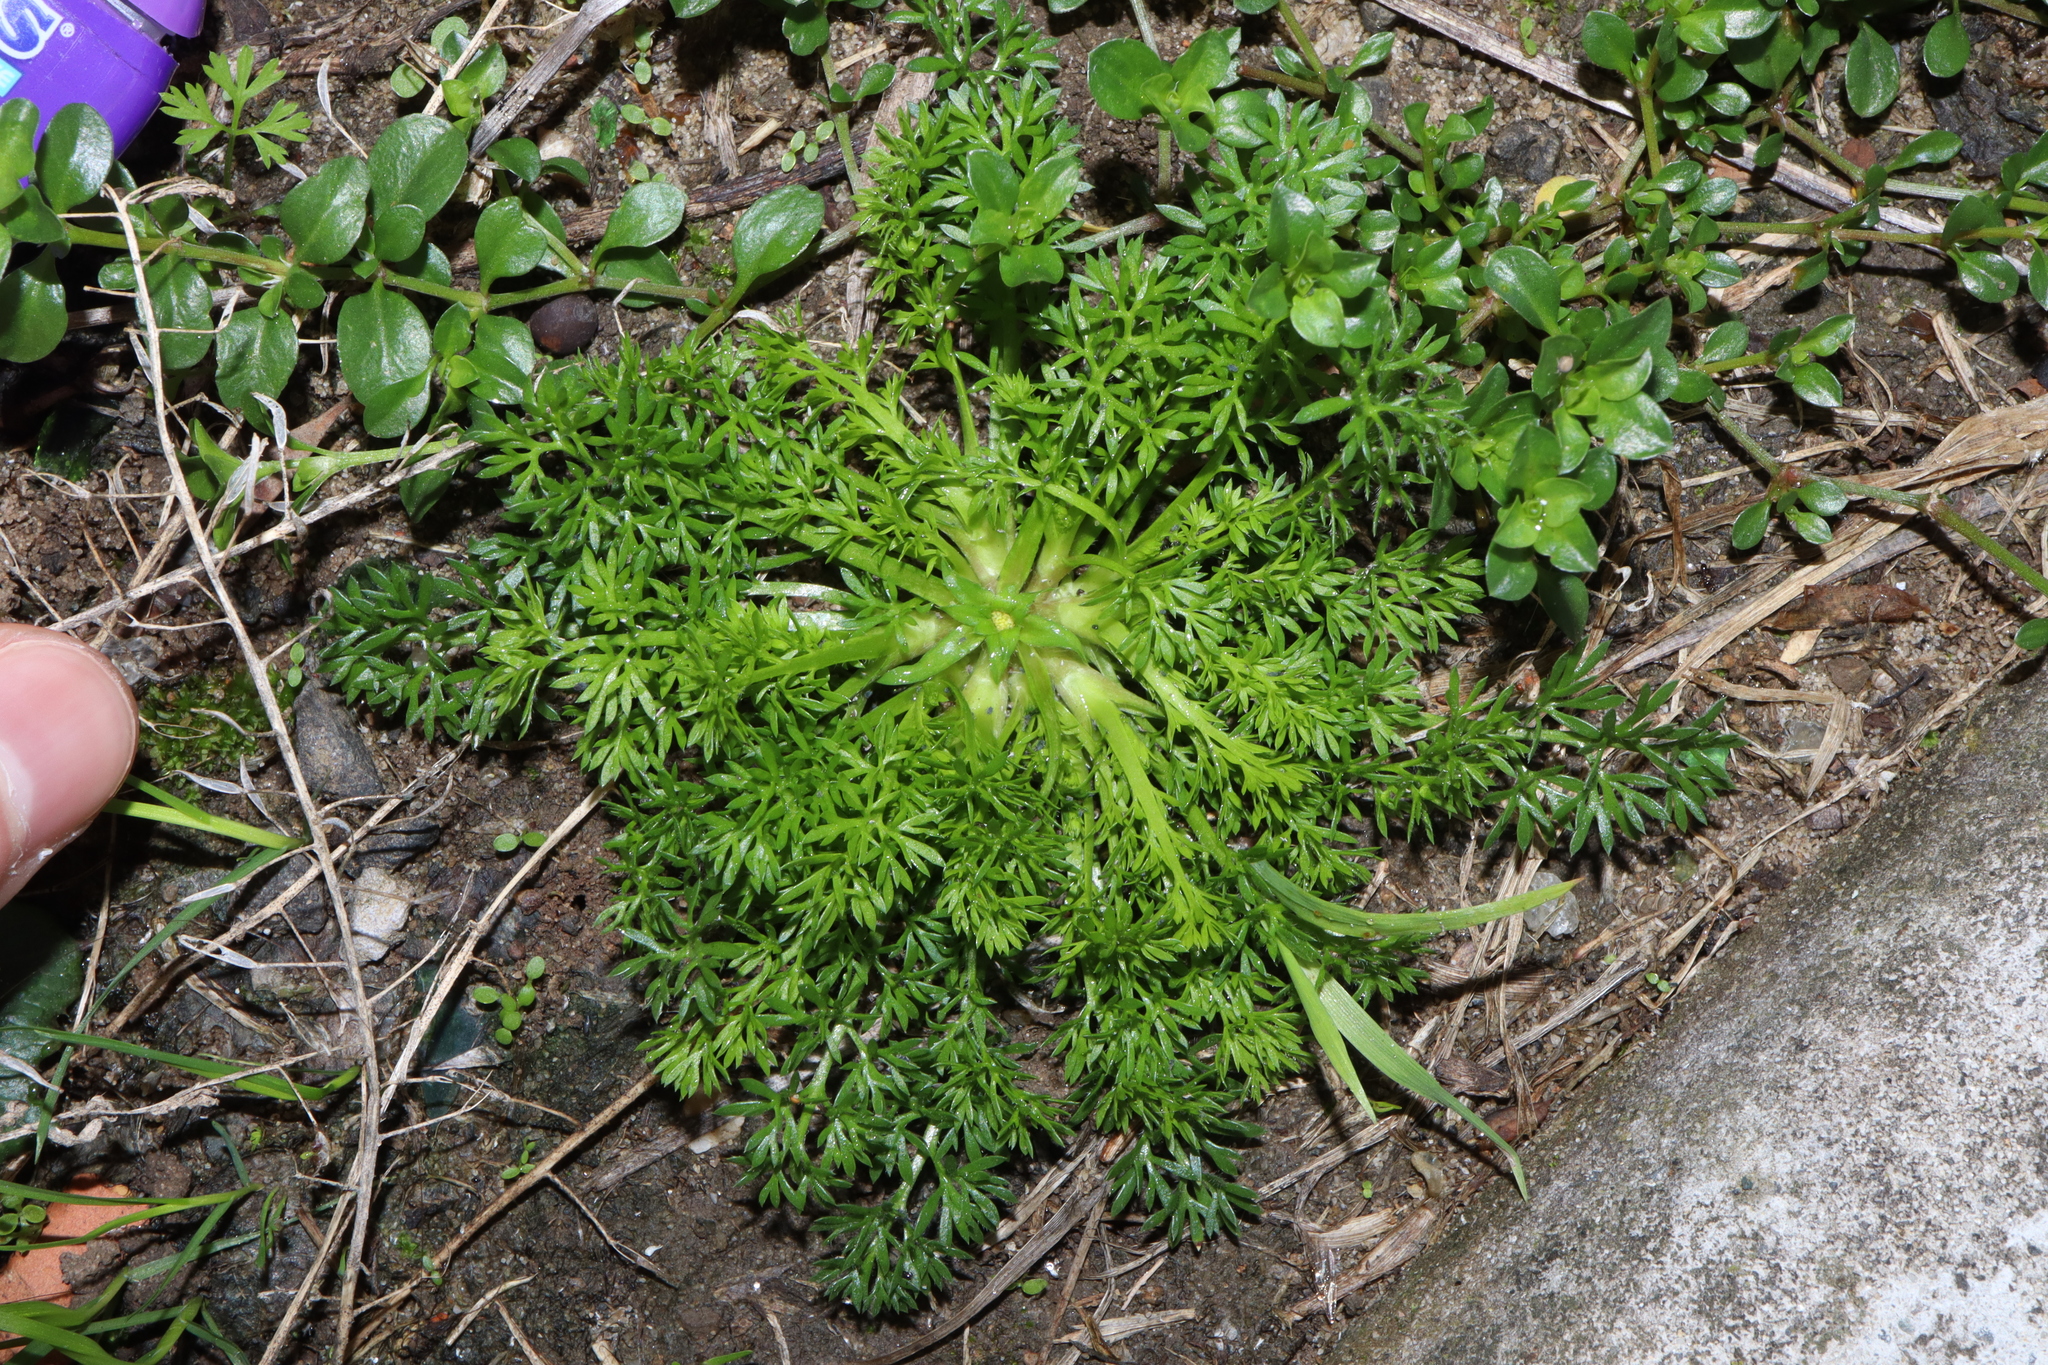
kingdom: Plantae
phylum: Tracheophyta
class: Magnoliopsida
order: Asterales
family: Asteraceae
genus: Soliva
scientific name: Soliva sessilis
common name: Field burrweed
